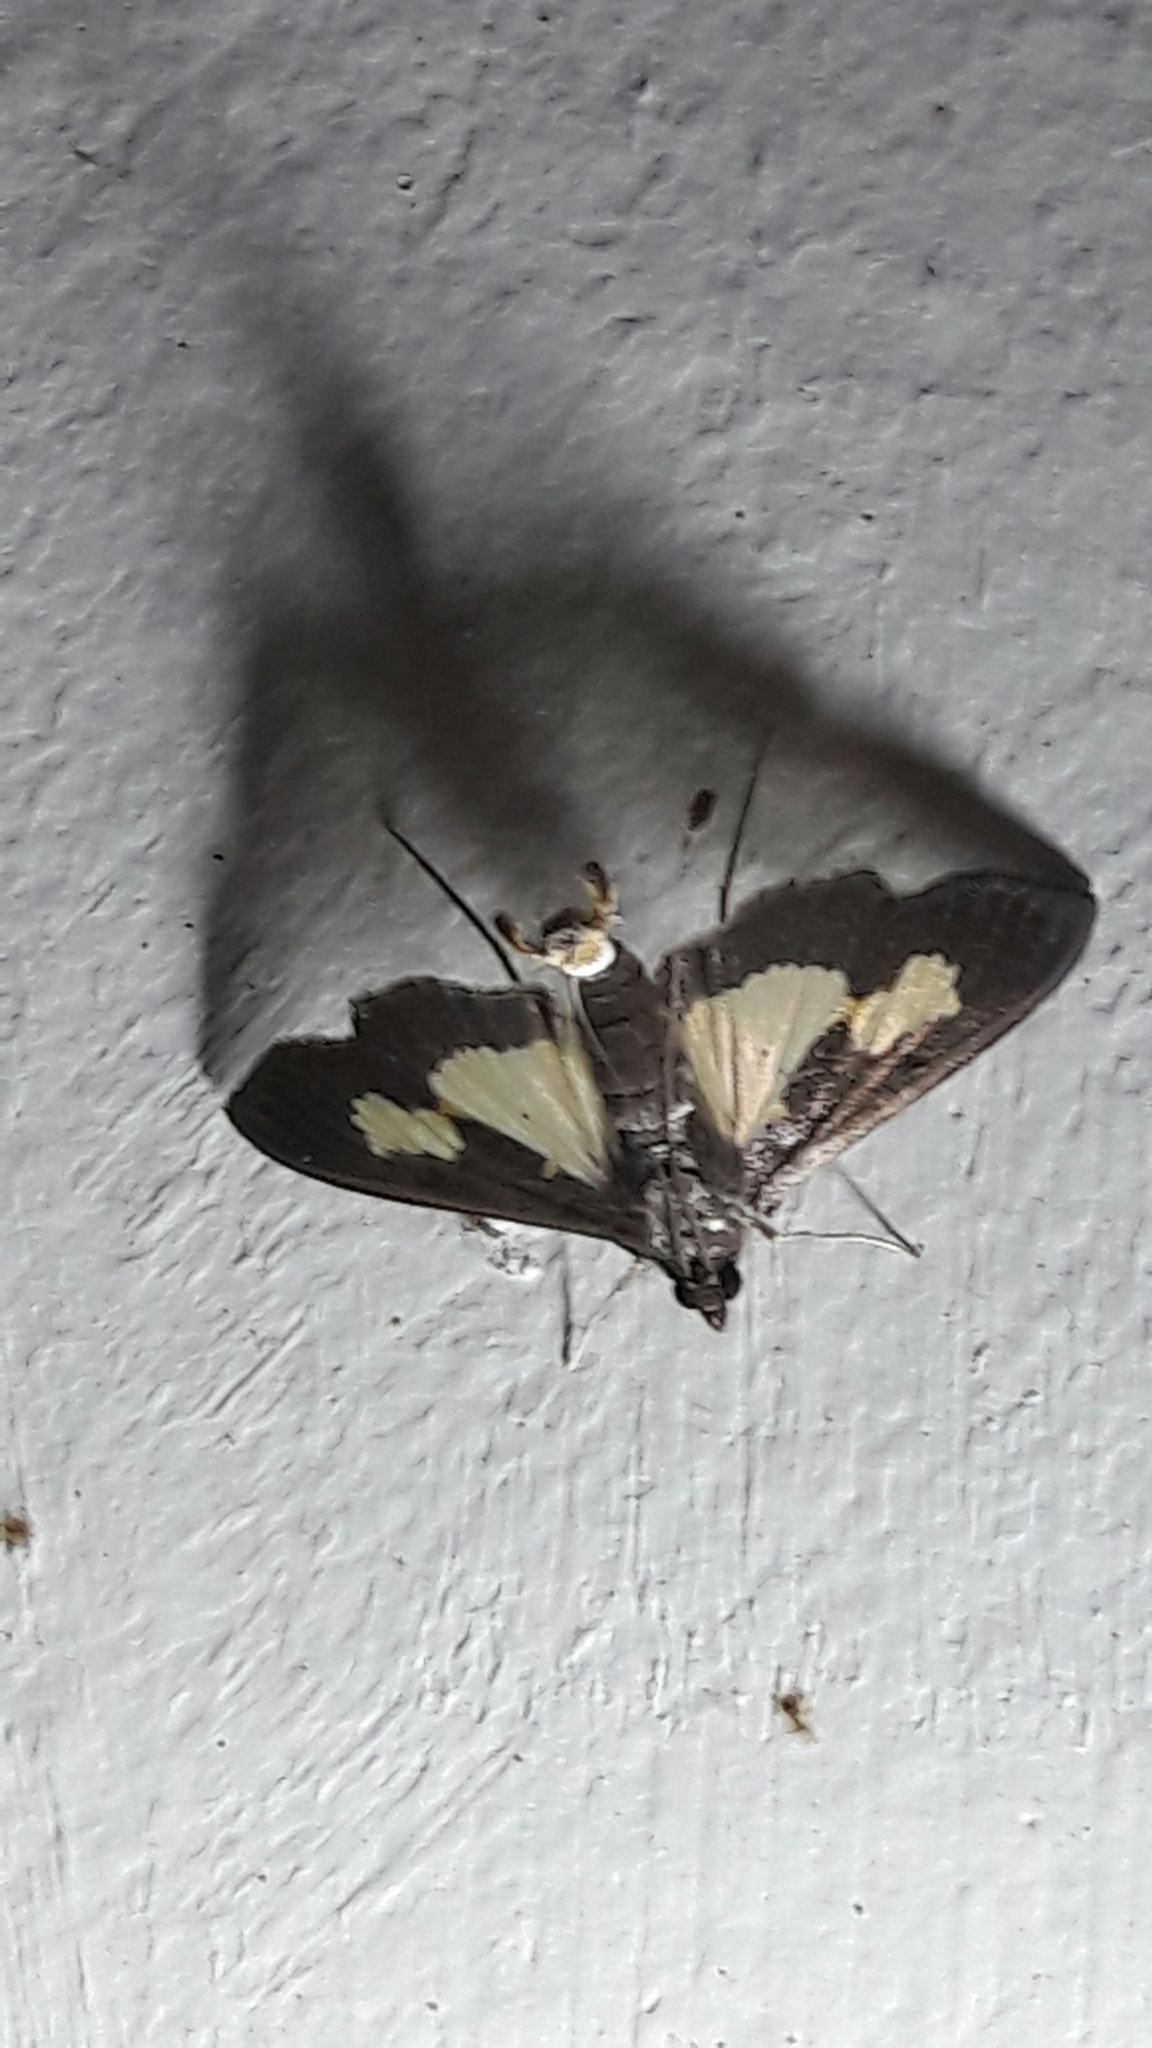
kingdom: Animalia
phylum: Arthropoda
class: Insecta
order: Lepidoptera
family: Crambidae
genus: Cryptographis
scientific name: Cryptographis nitidalis
